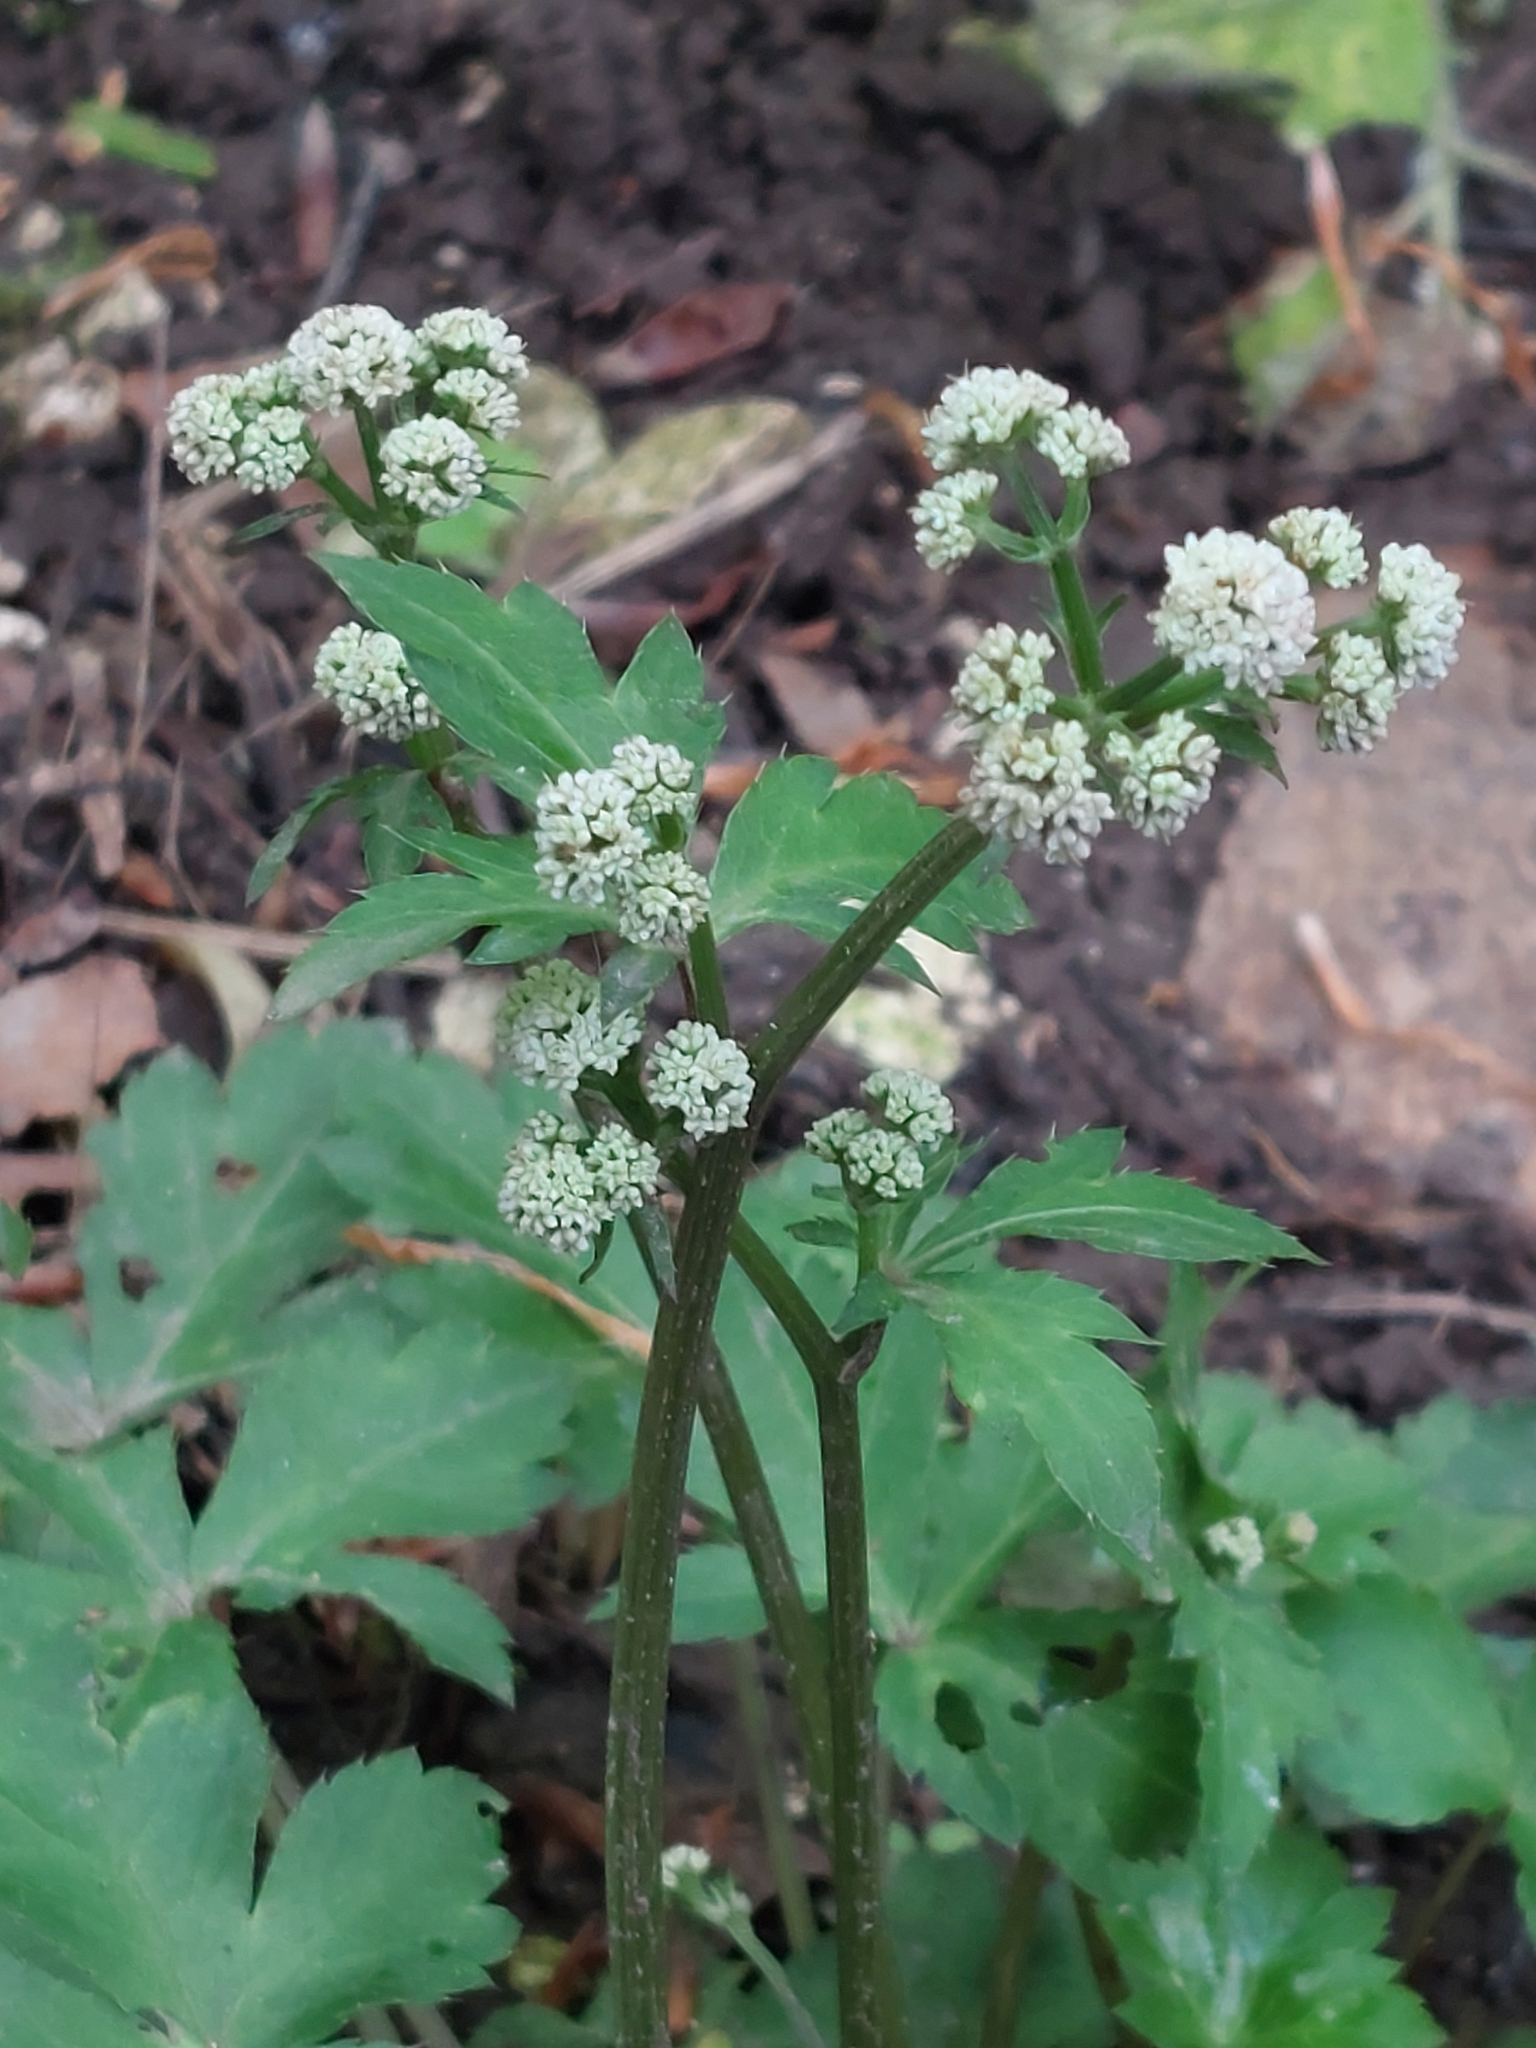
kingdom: Plantae
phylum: Tracheophyta
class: Magnoliopsida
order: Apiales
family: Apiaceae
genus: Sanicula
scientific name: Sanicula europaea
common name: Sanicle
